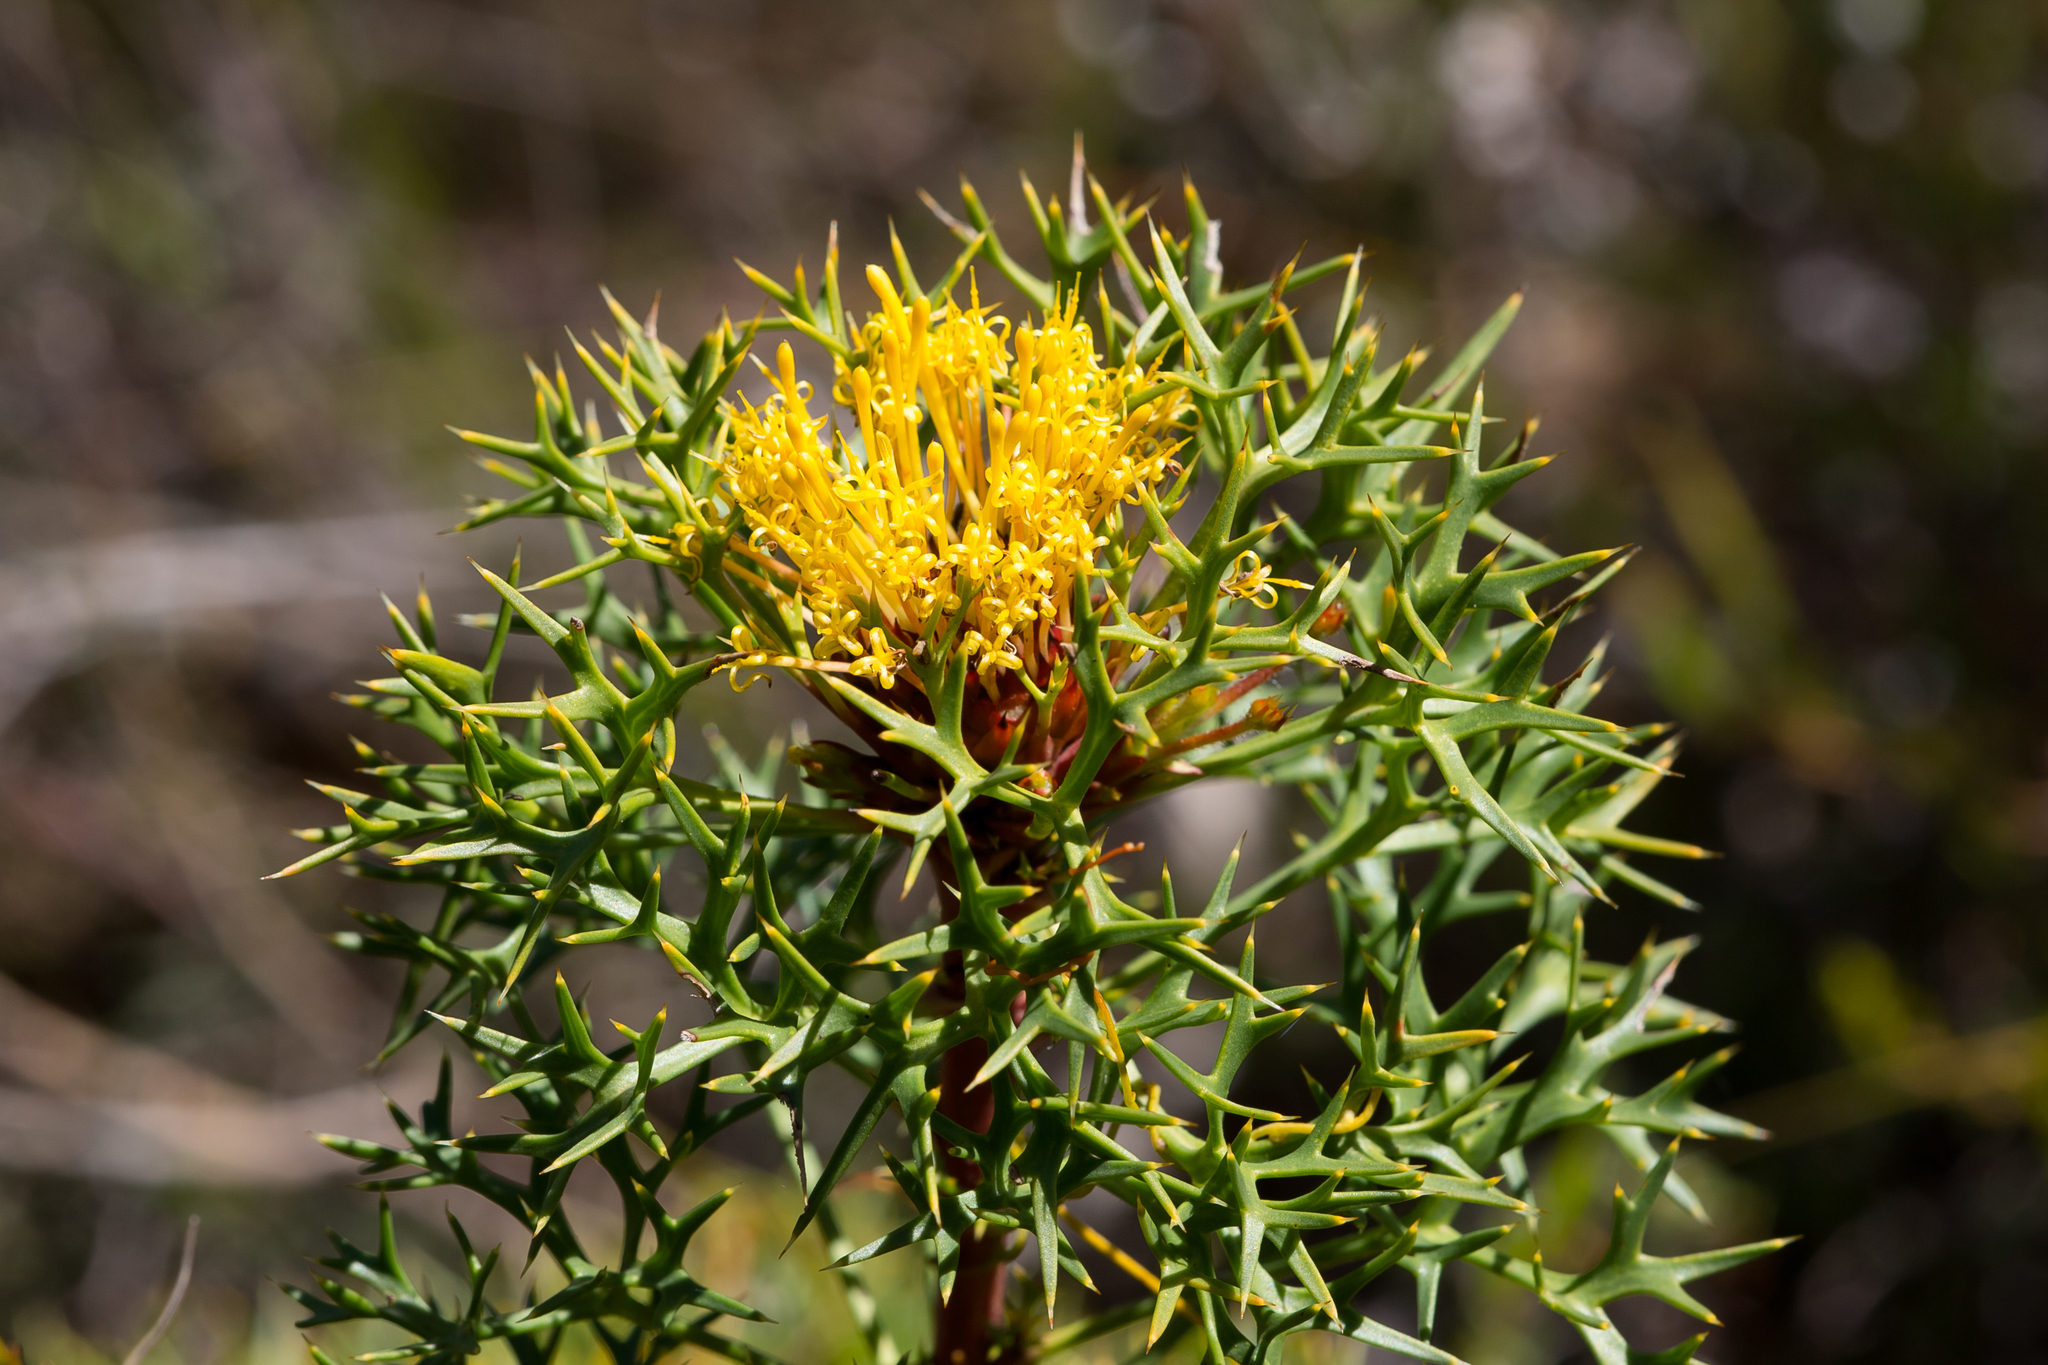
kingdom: Plantae
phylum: Tracheophyta
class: Magnoliopsida
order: Proteales
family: Proteaceae
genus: Isopogon
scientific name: Isopogon ceratophyllus
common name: Horny cone-bush
